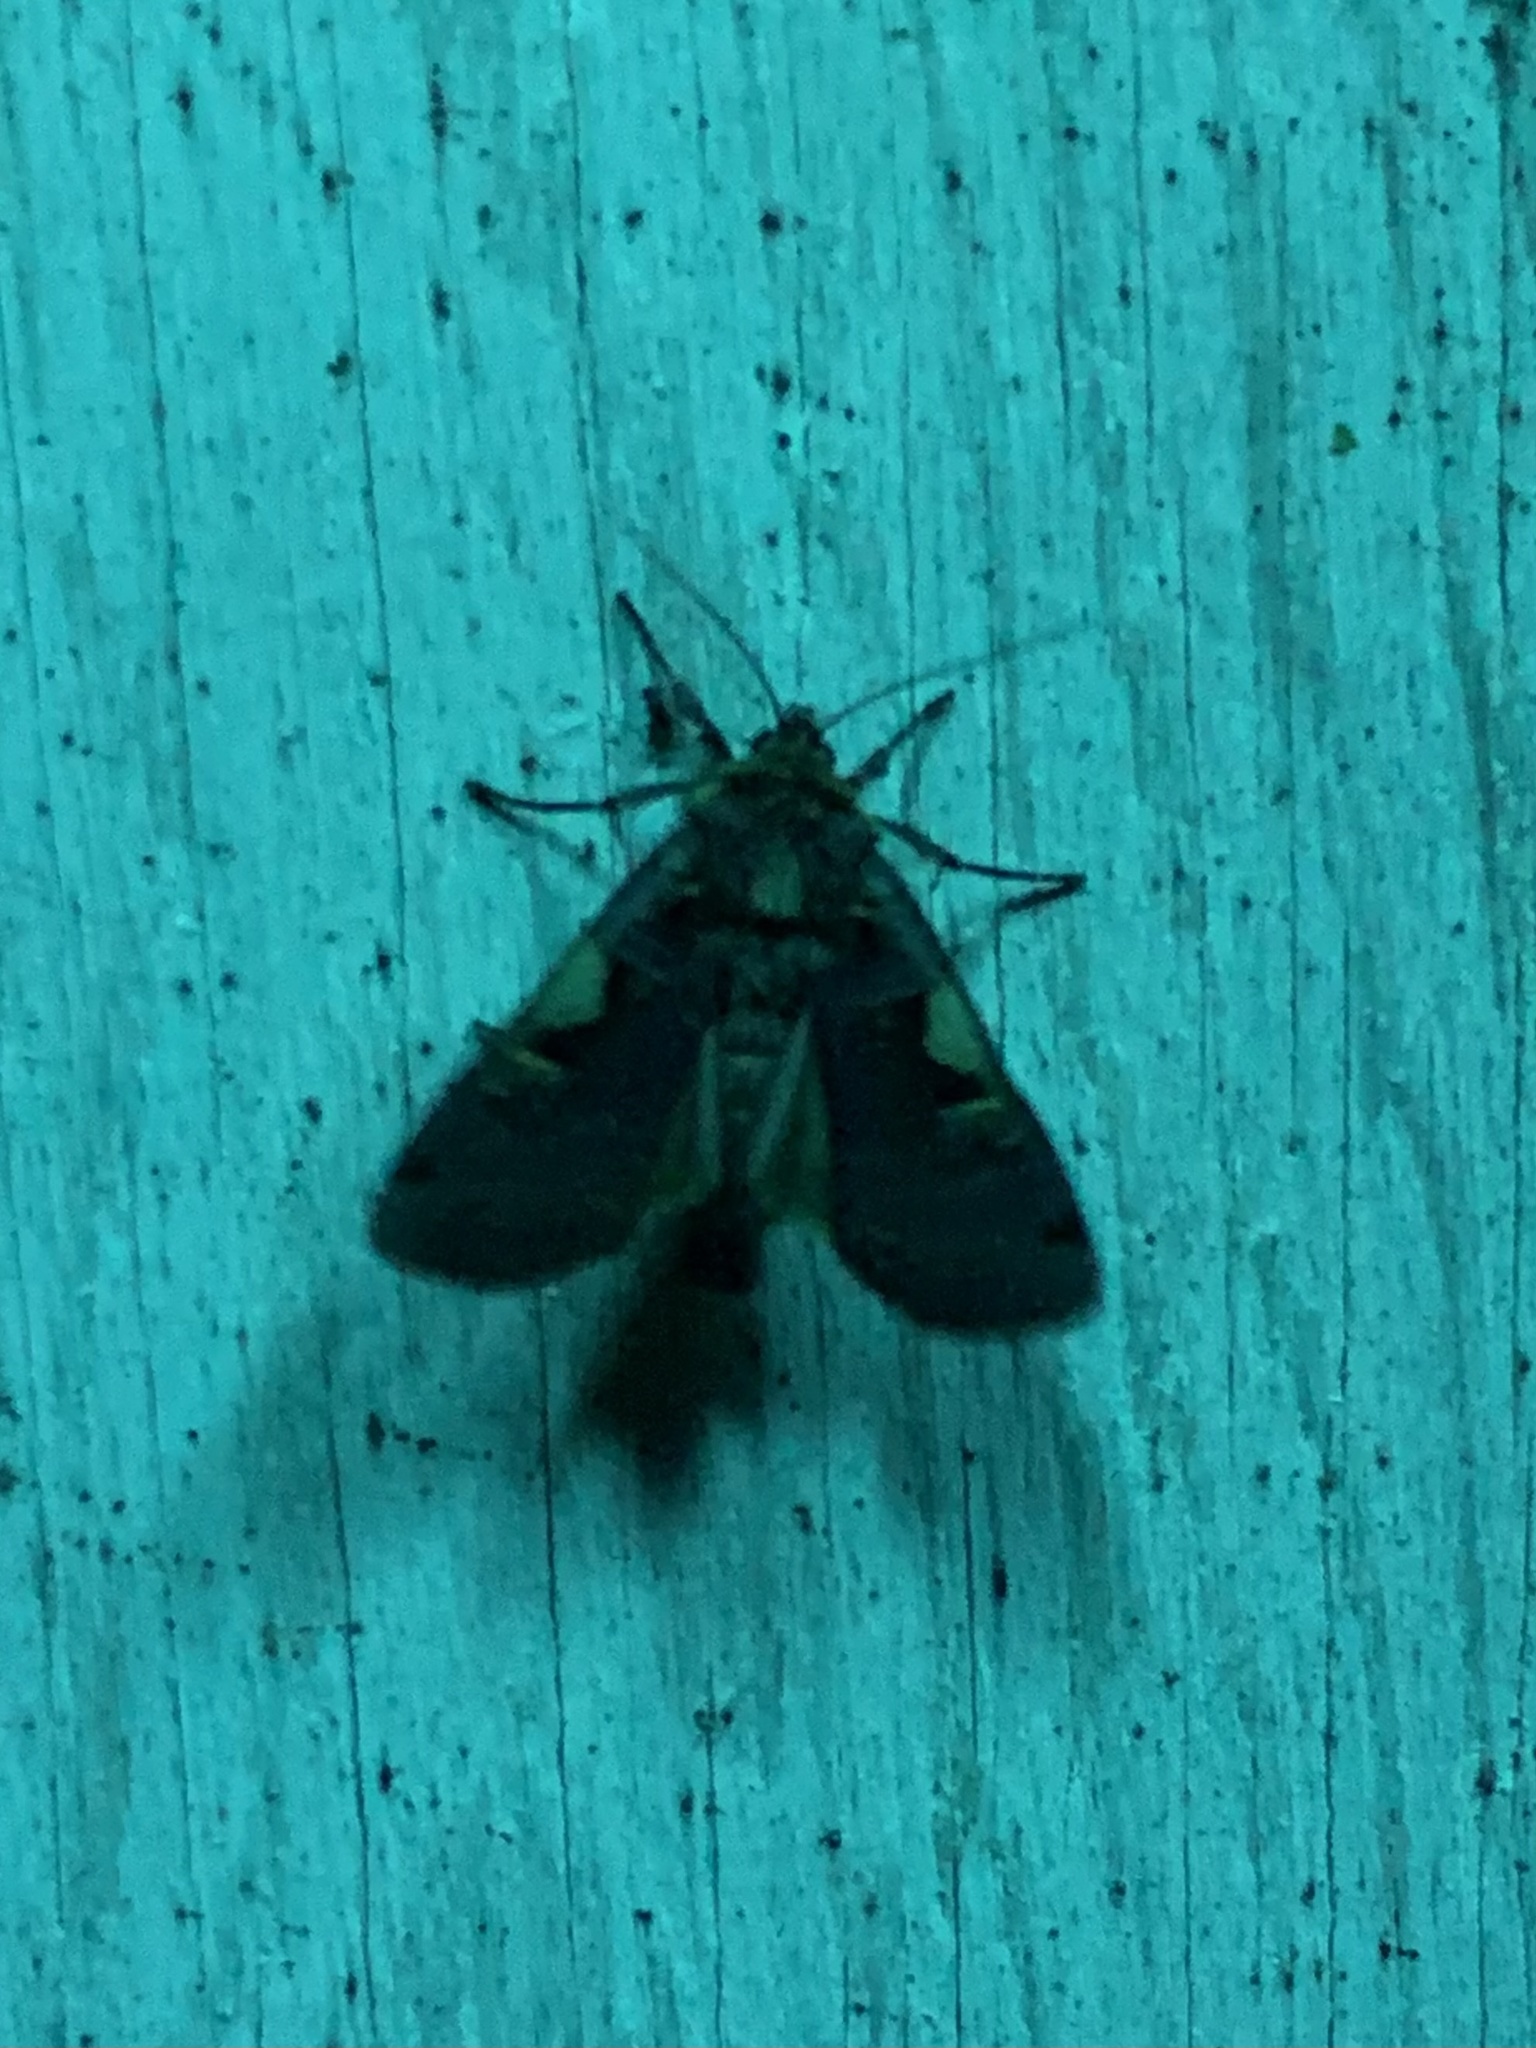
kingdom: Animalia
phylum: Arthropoda
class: Insecta
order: Lepidoptera
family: Noctuidae
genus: Xestia
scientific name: Xestia c-nigrum
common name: Setaceous hebrew character
